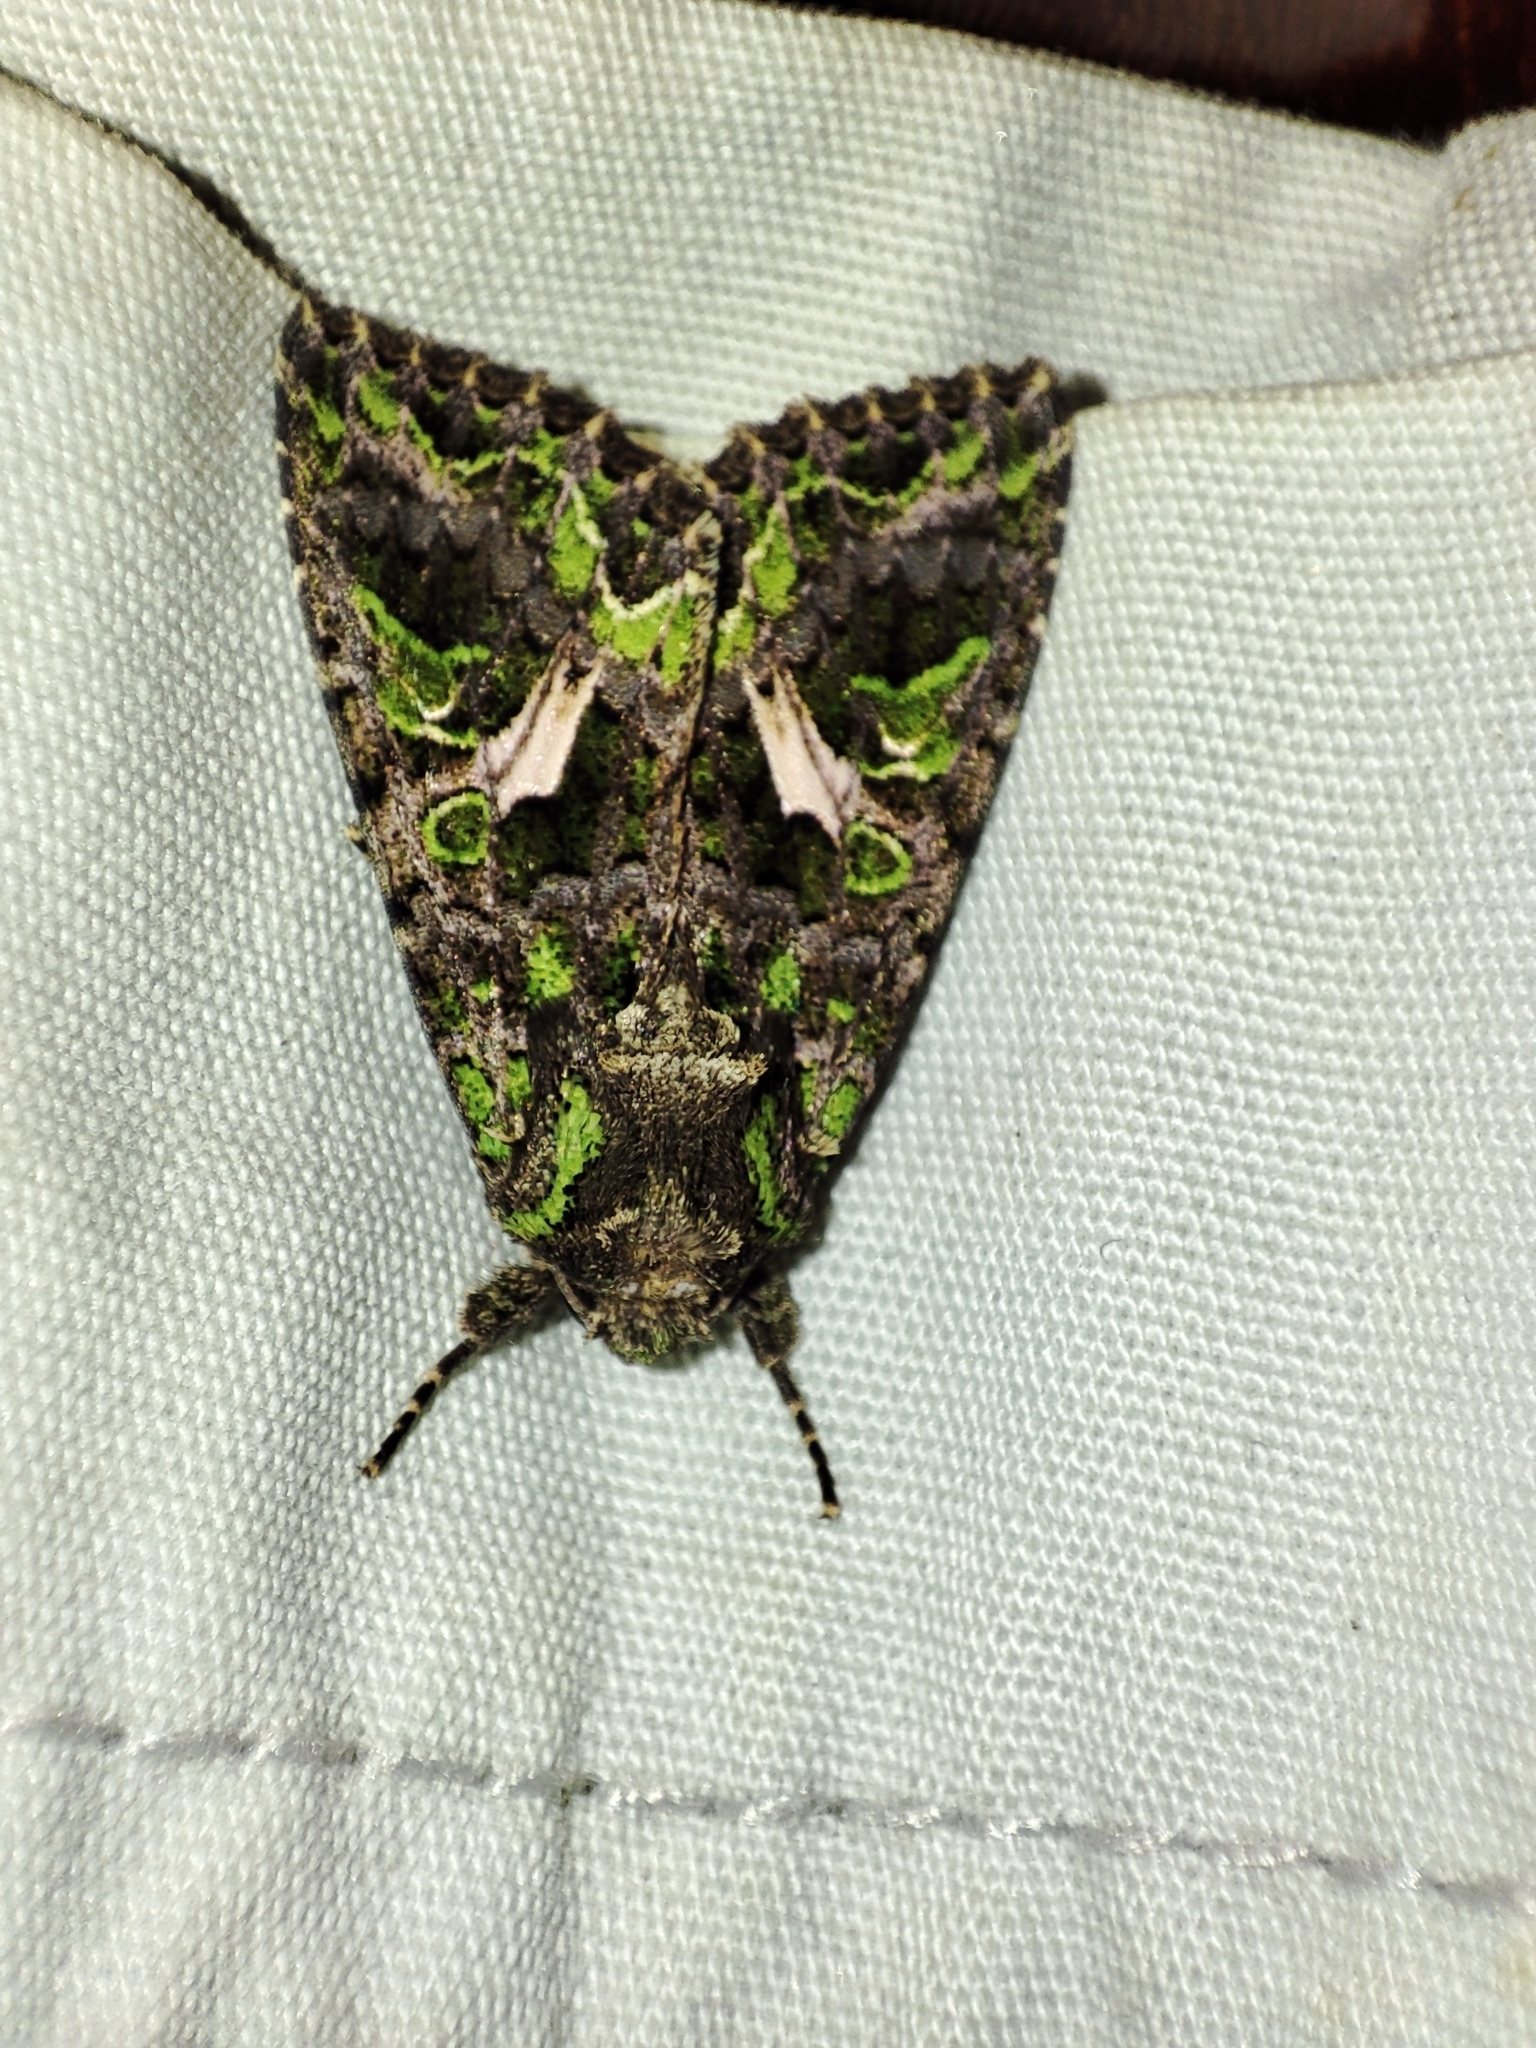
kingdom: Animalia
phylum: Arthropoda
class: Insecta
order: Lepidoptera
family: Noctuidae
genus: Trachea
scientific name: Trachea atriplicis
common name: Orache moth
